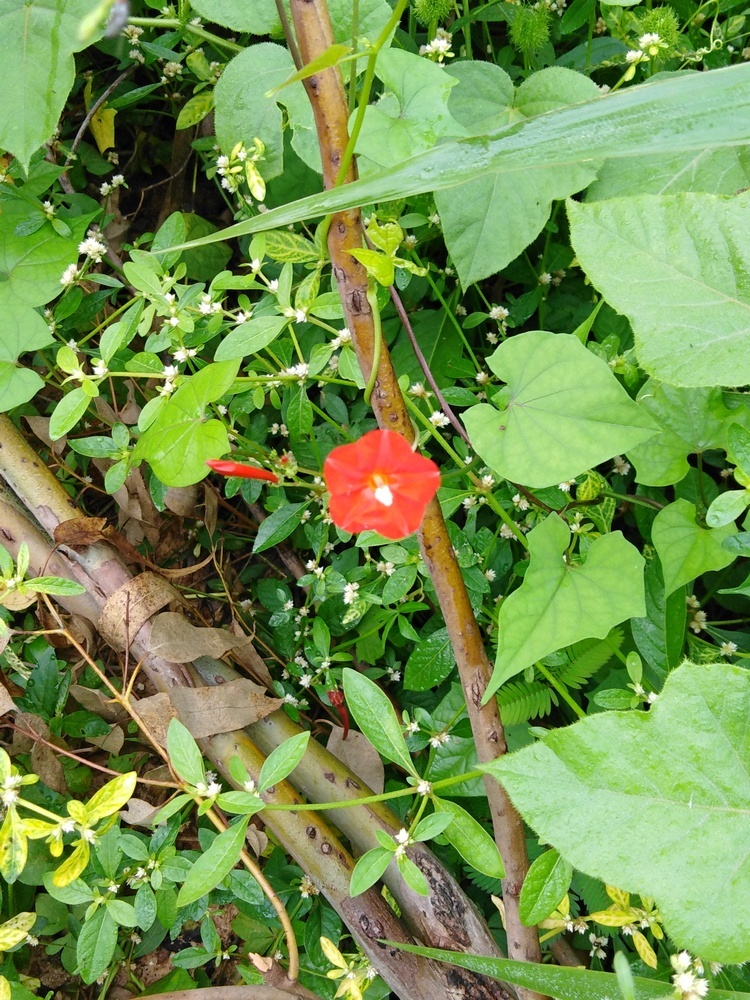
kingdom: Plantae
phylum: Tracheophyta
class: Magnoliopsida
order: Solanales
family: Convolvulaceae
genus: Ipomoea
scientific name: Ipomoea hederifolia
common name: Ivy-leaf morning-glory
